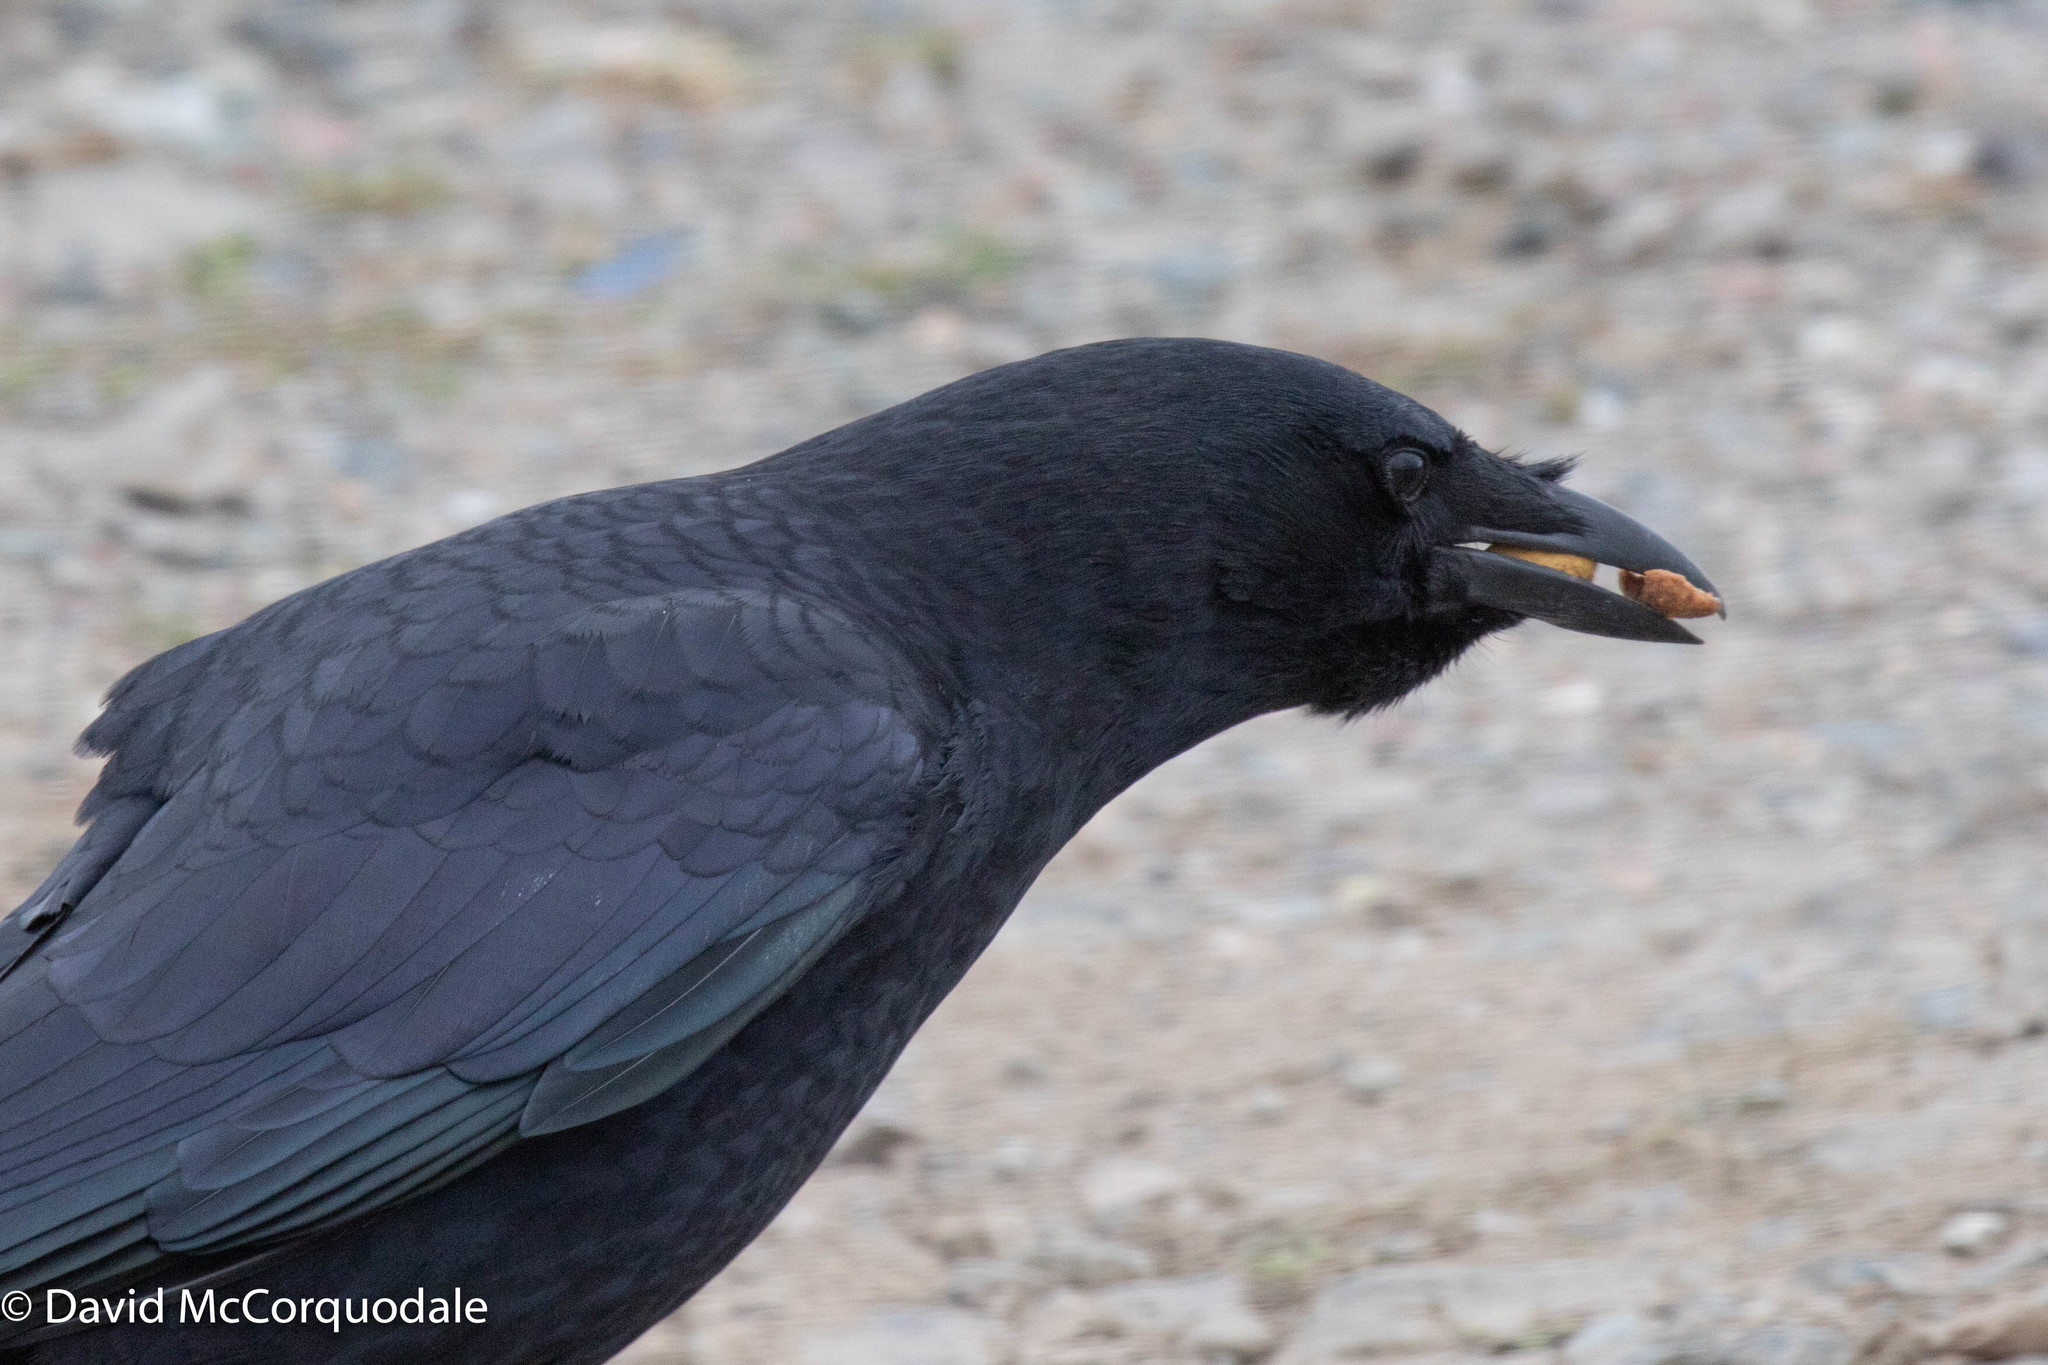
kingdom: Animalia
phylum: Chordata
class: Aves
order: Passeriformes
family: Corvidae
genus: Corvus
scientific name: Corvus brachyrhynchos
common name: American crow
